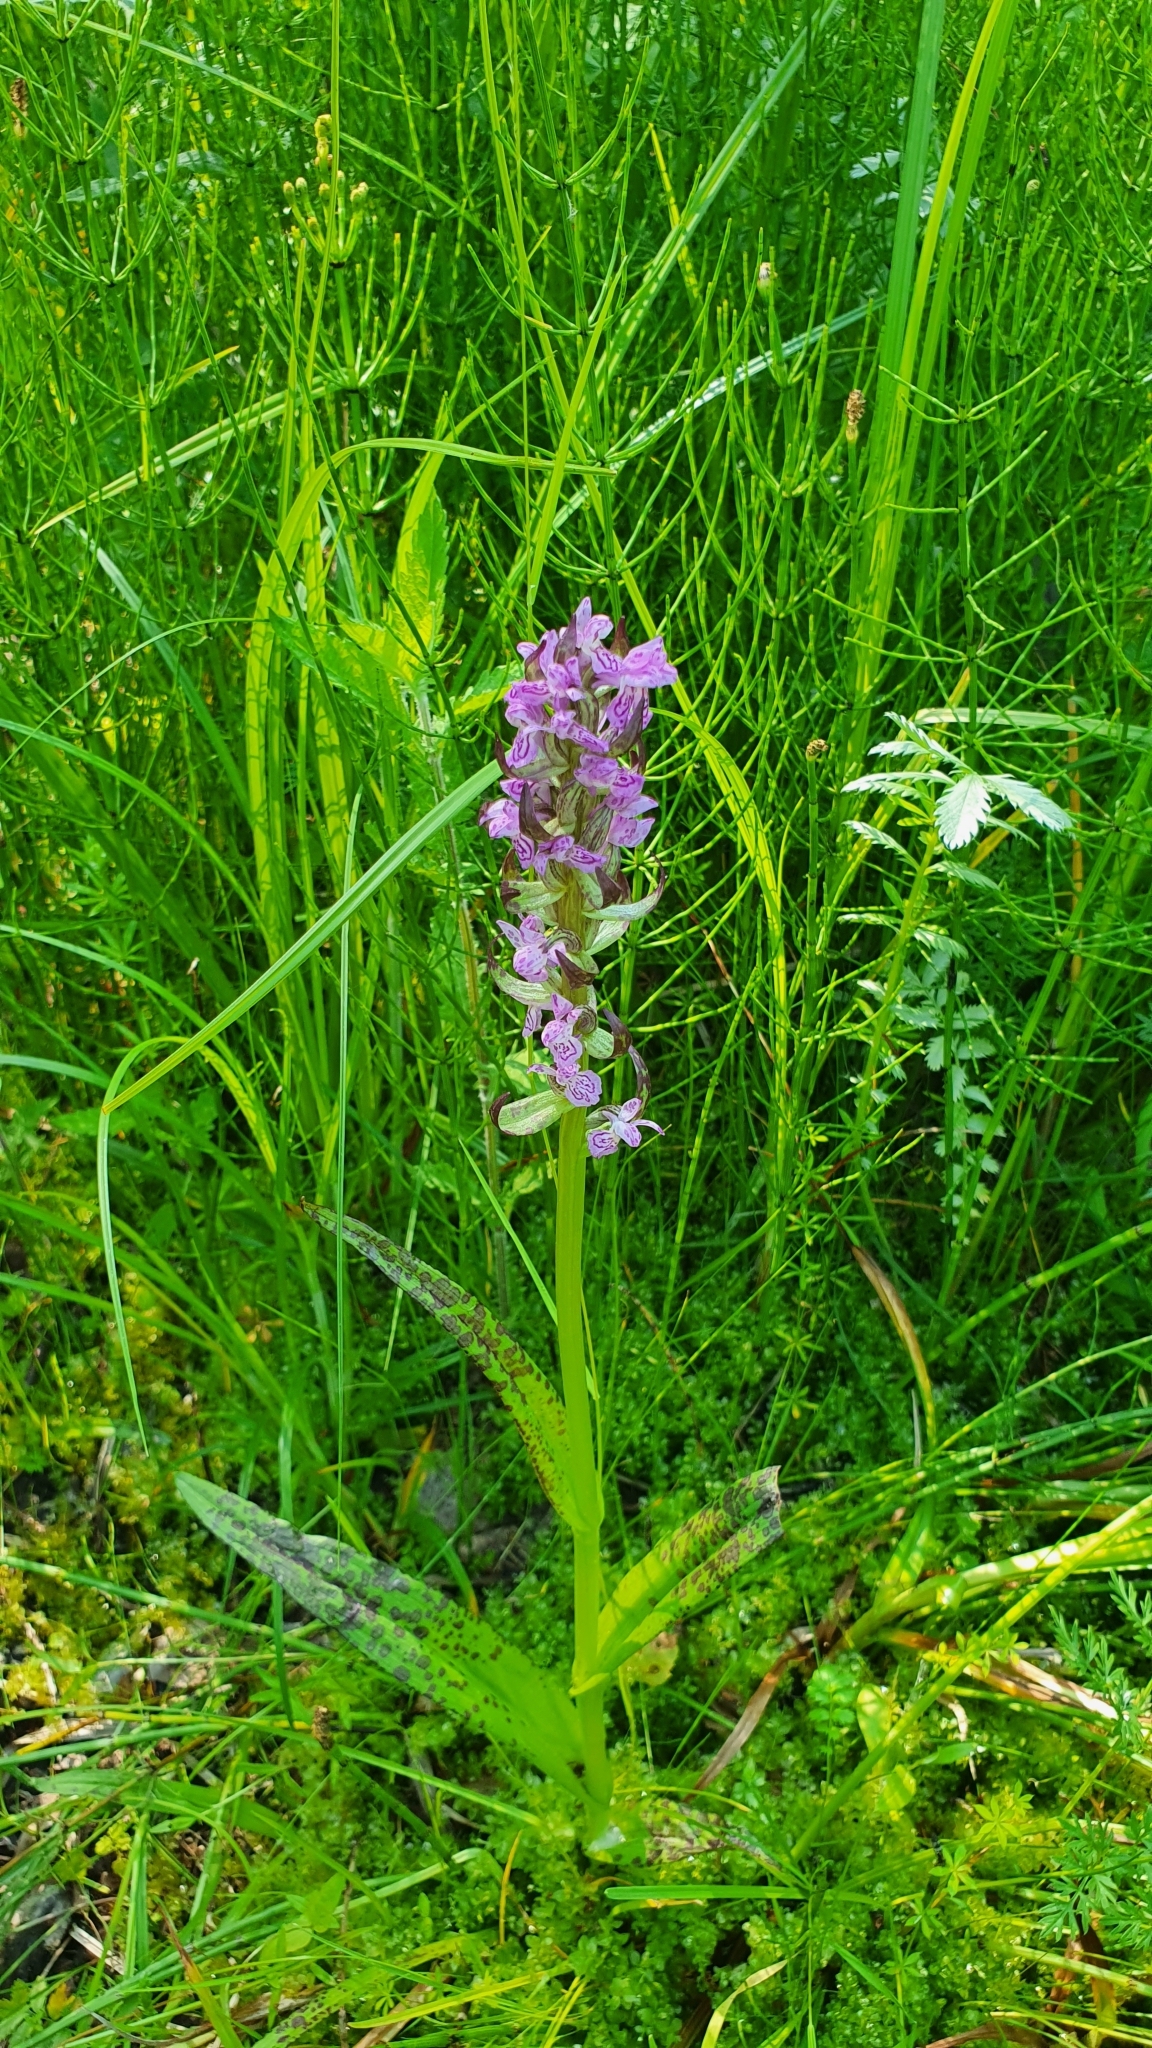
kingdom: Plantae
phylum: Tracheophyta
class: Liliopsida
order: Asparagales
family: Orchidaceae
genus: Dactylorhiza
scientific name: Dactylorhiza incarnata
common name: Early marsh-orchid
